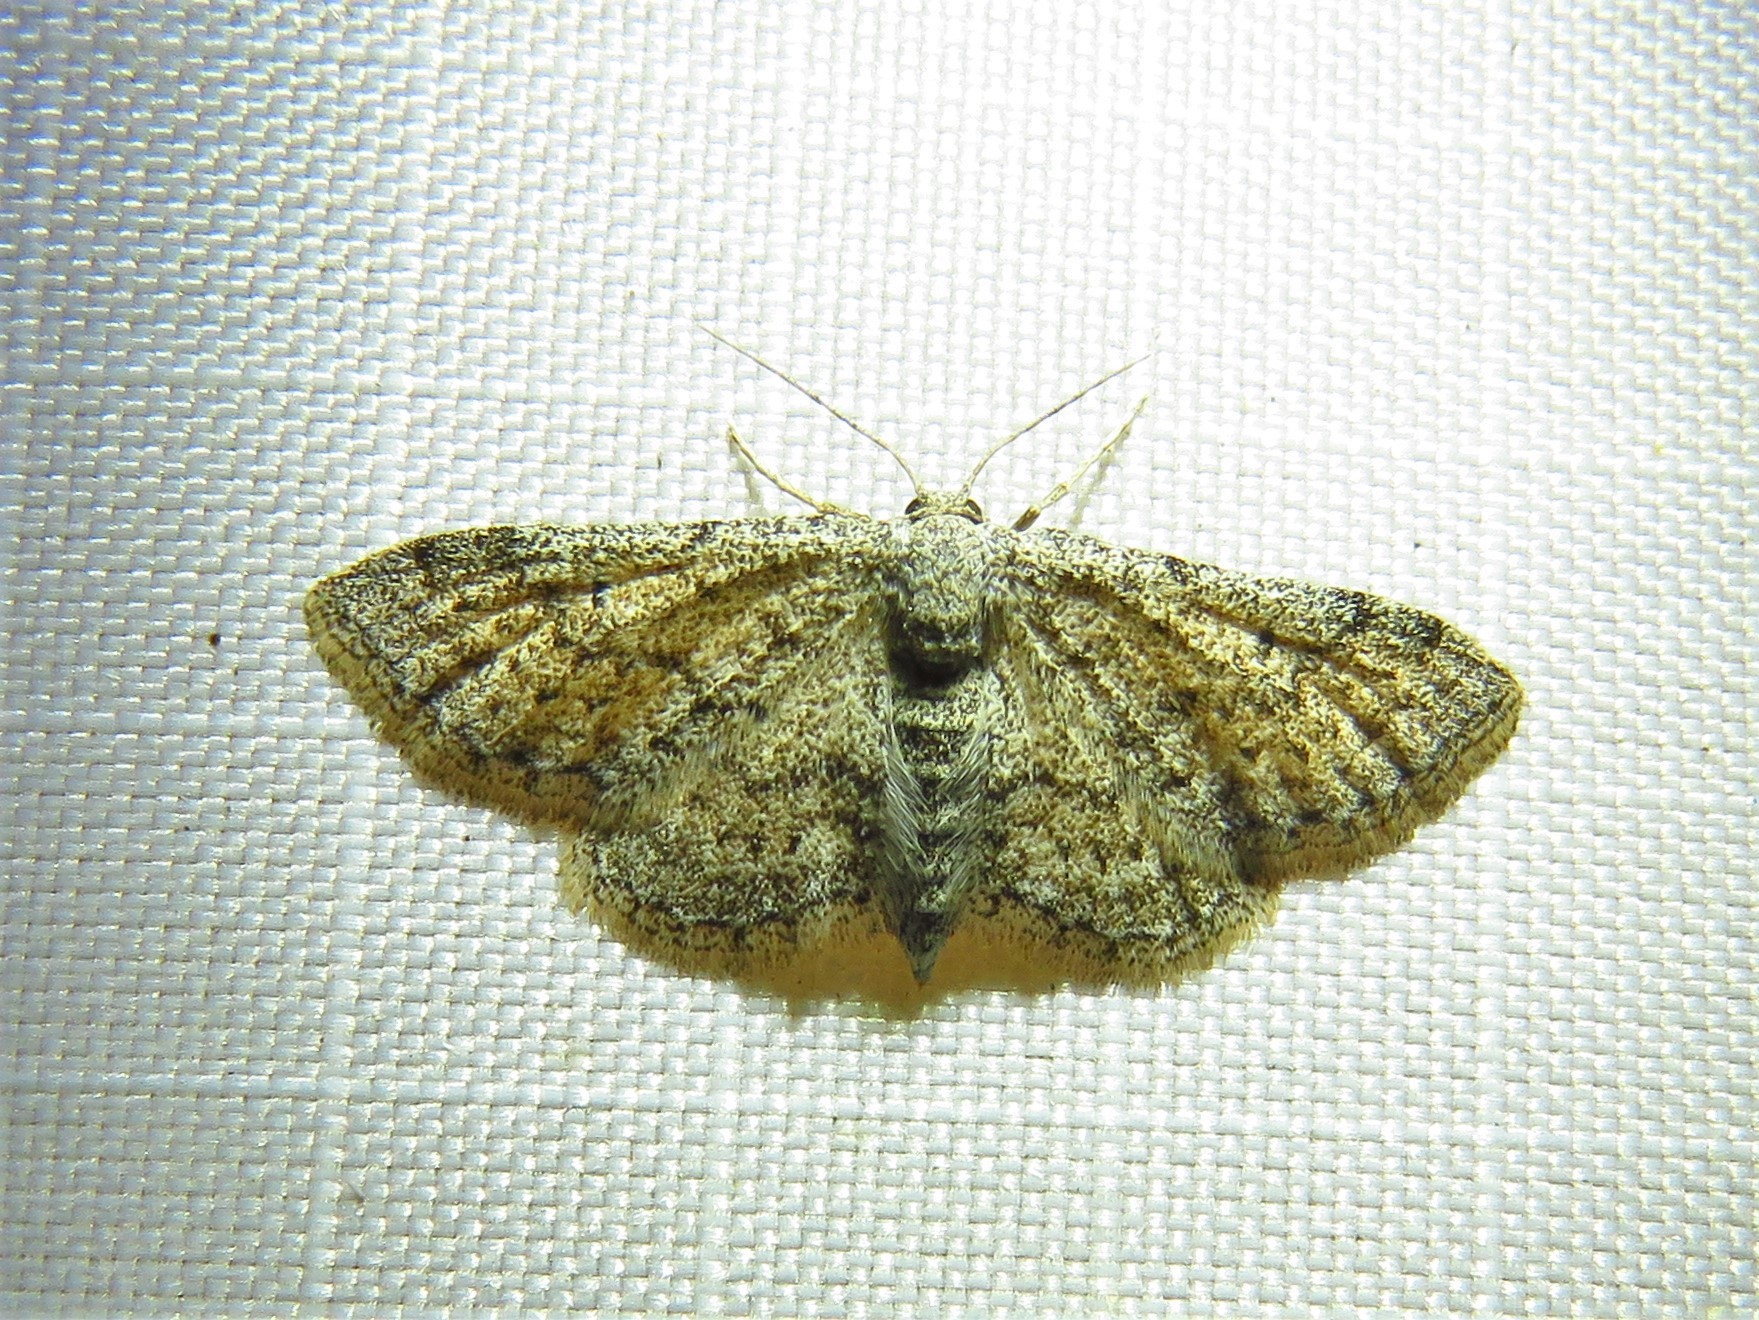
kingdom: Animalia
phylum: Arthropoda
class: Insecta
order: Lepidoptera
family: Geometridae
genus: Lobocleta
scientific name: Lobocleta ossularia
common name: Drab brown wave
